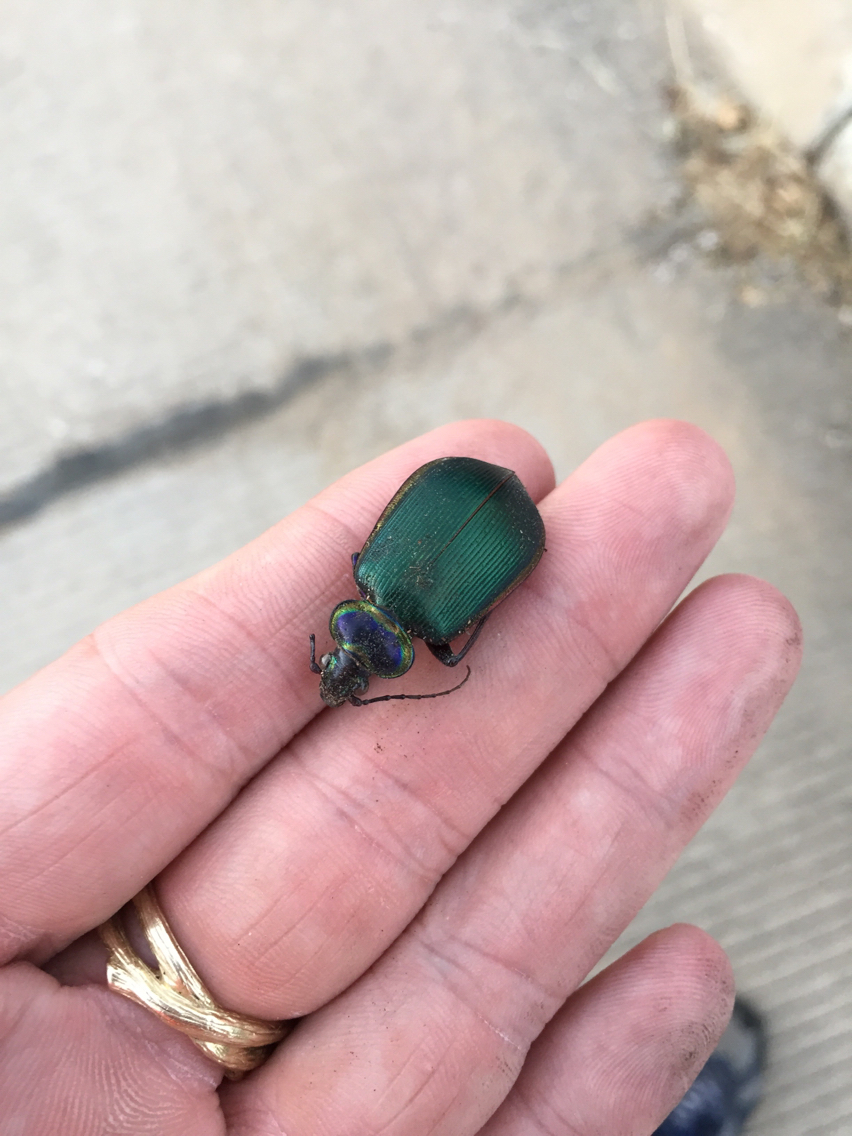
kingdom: Animalia
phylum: Arthropoda
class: Insecta
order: Coleoptera
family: Carabidae
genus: Calosoma
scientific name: Calosoma scrutator
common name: Fiery searcher beetle
